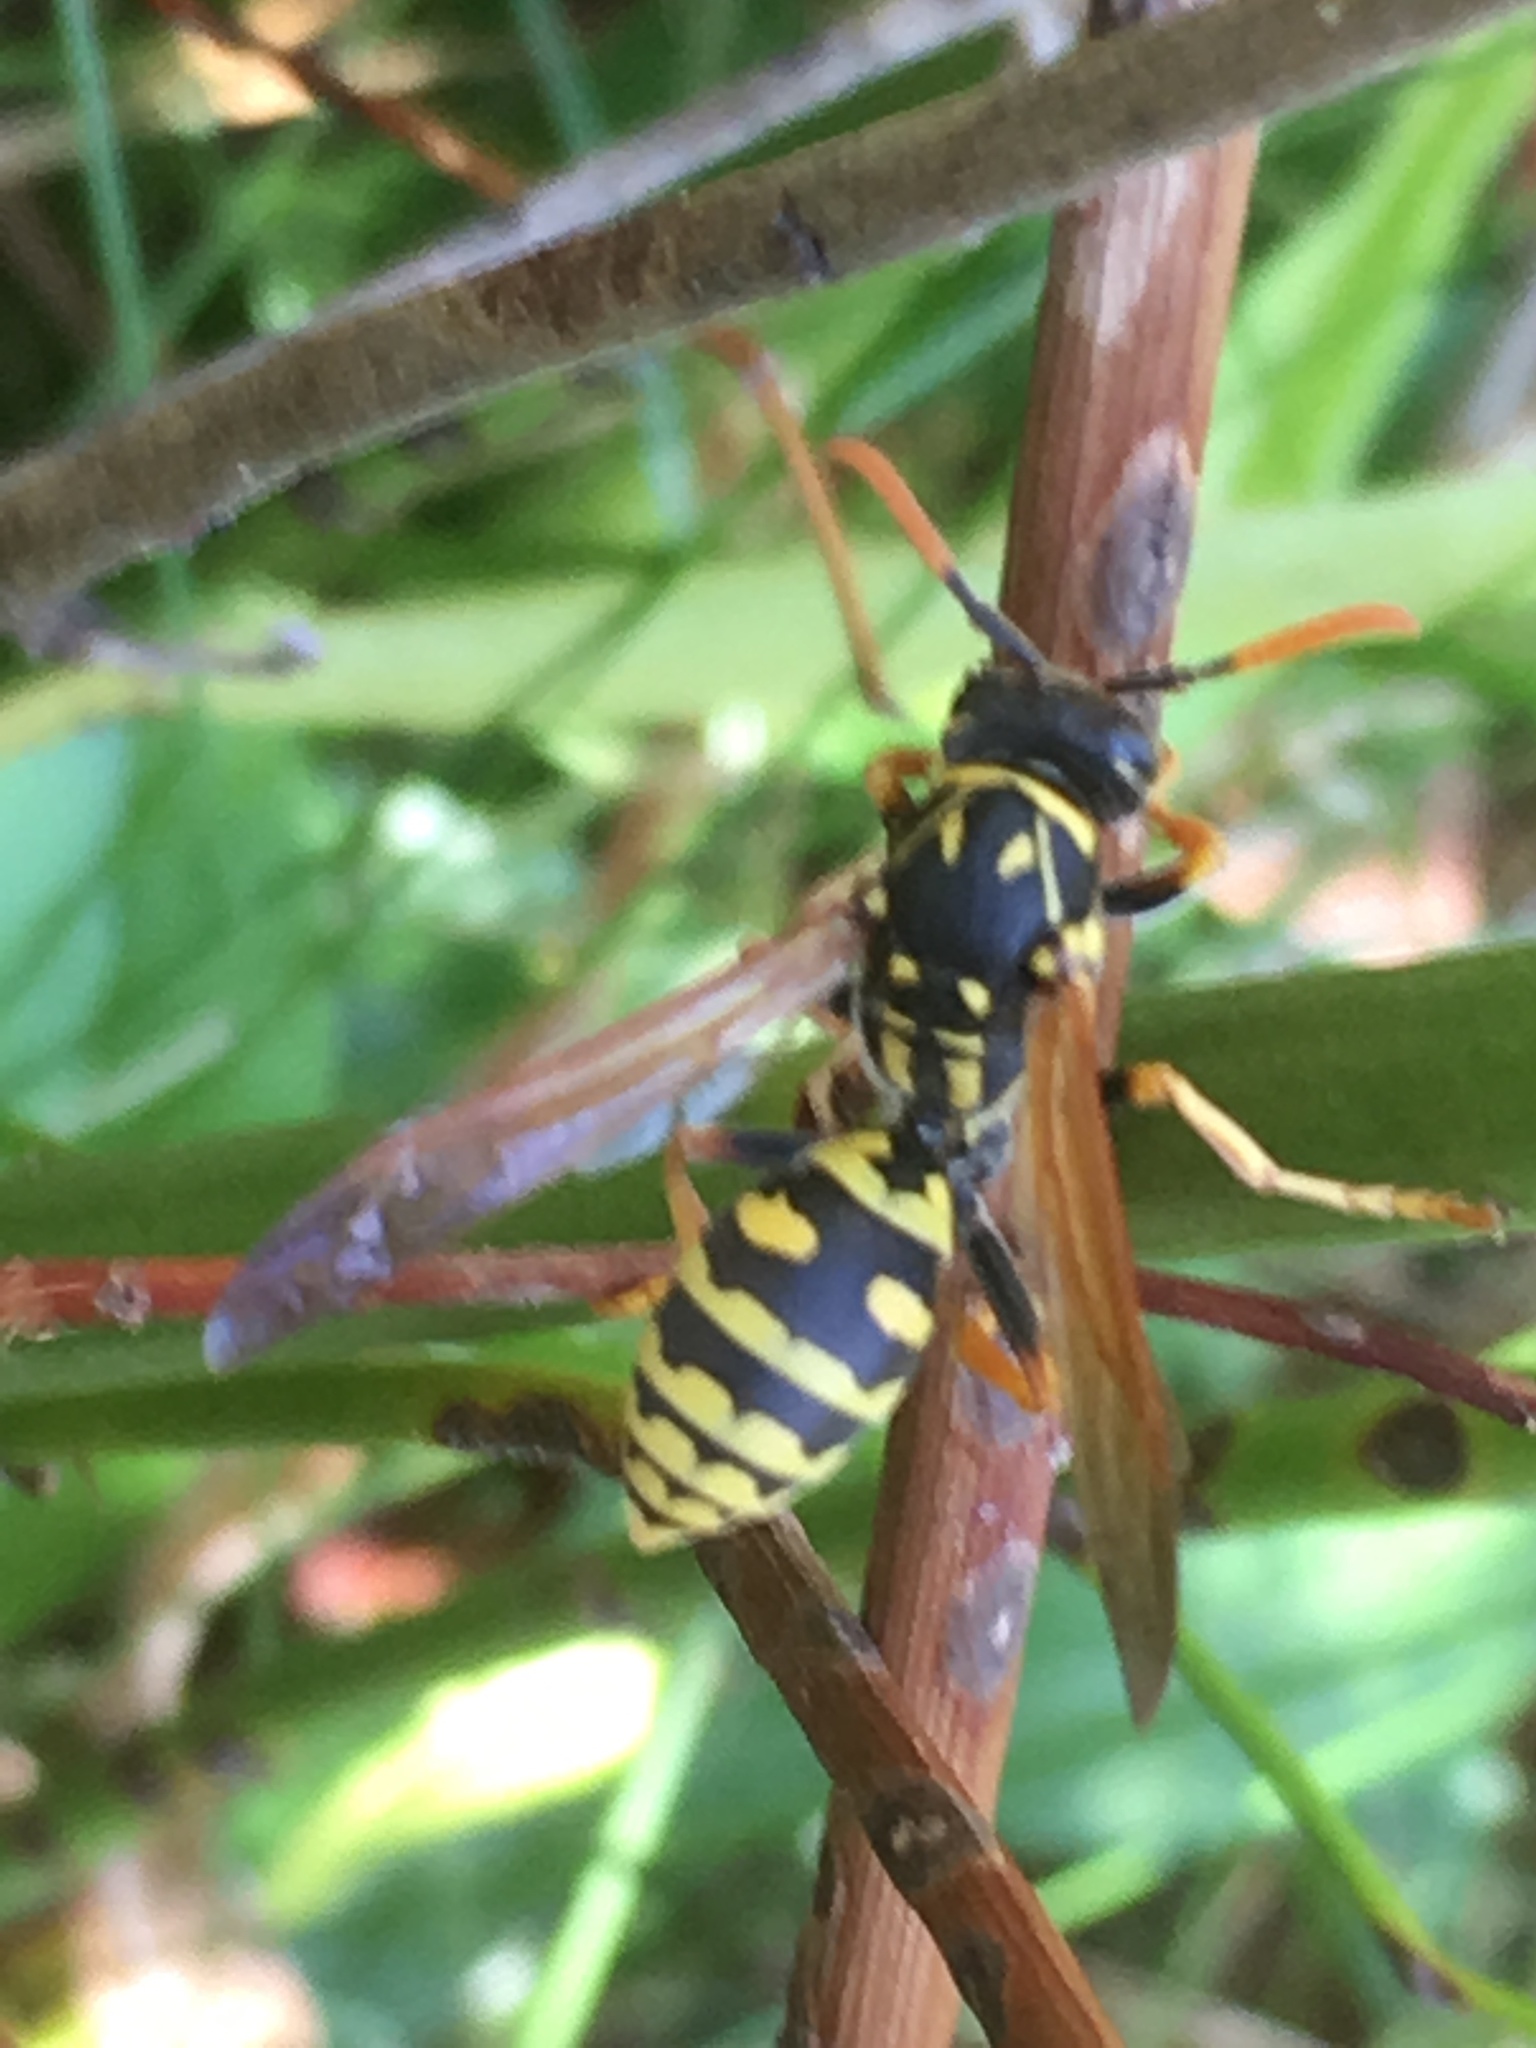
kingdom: Animalia
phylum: Arthropoda
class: Insecta
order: Hymenoptera
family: Eumenidae
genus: Polistes
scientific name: Polistes dominula
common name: Paper wasp
